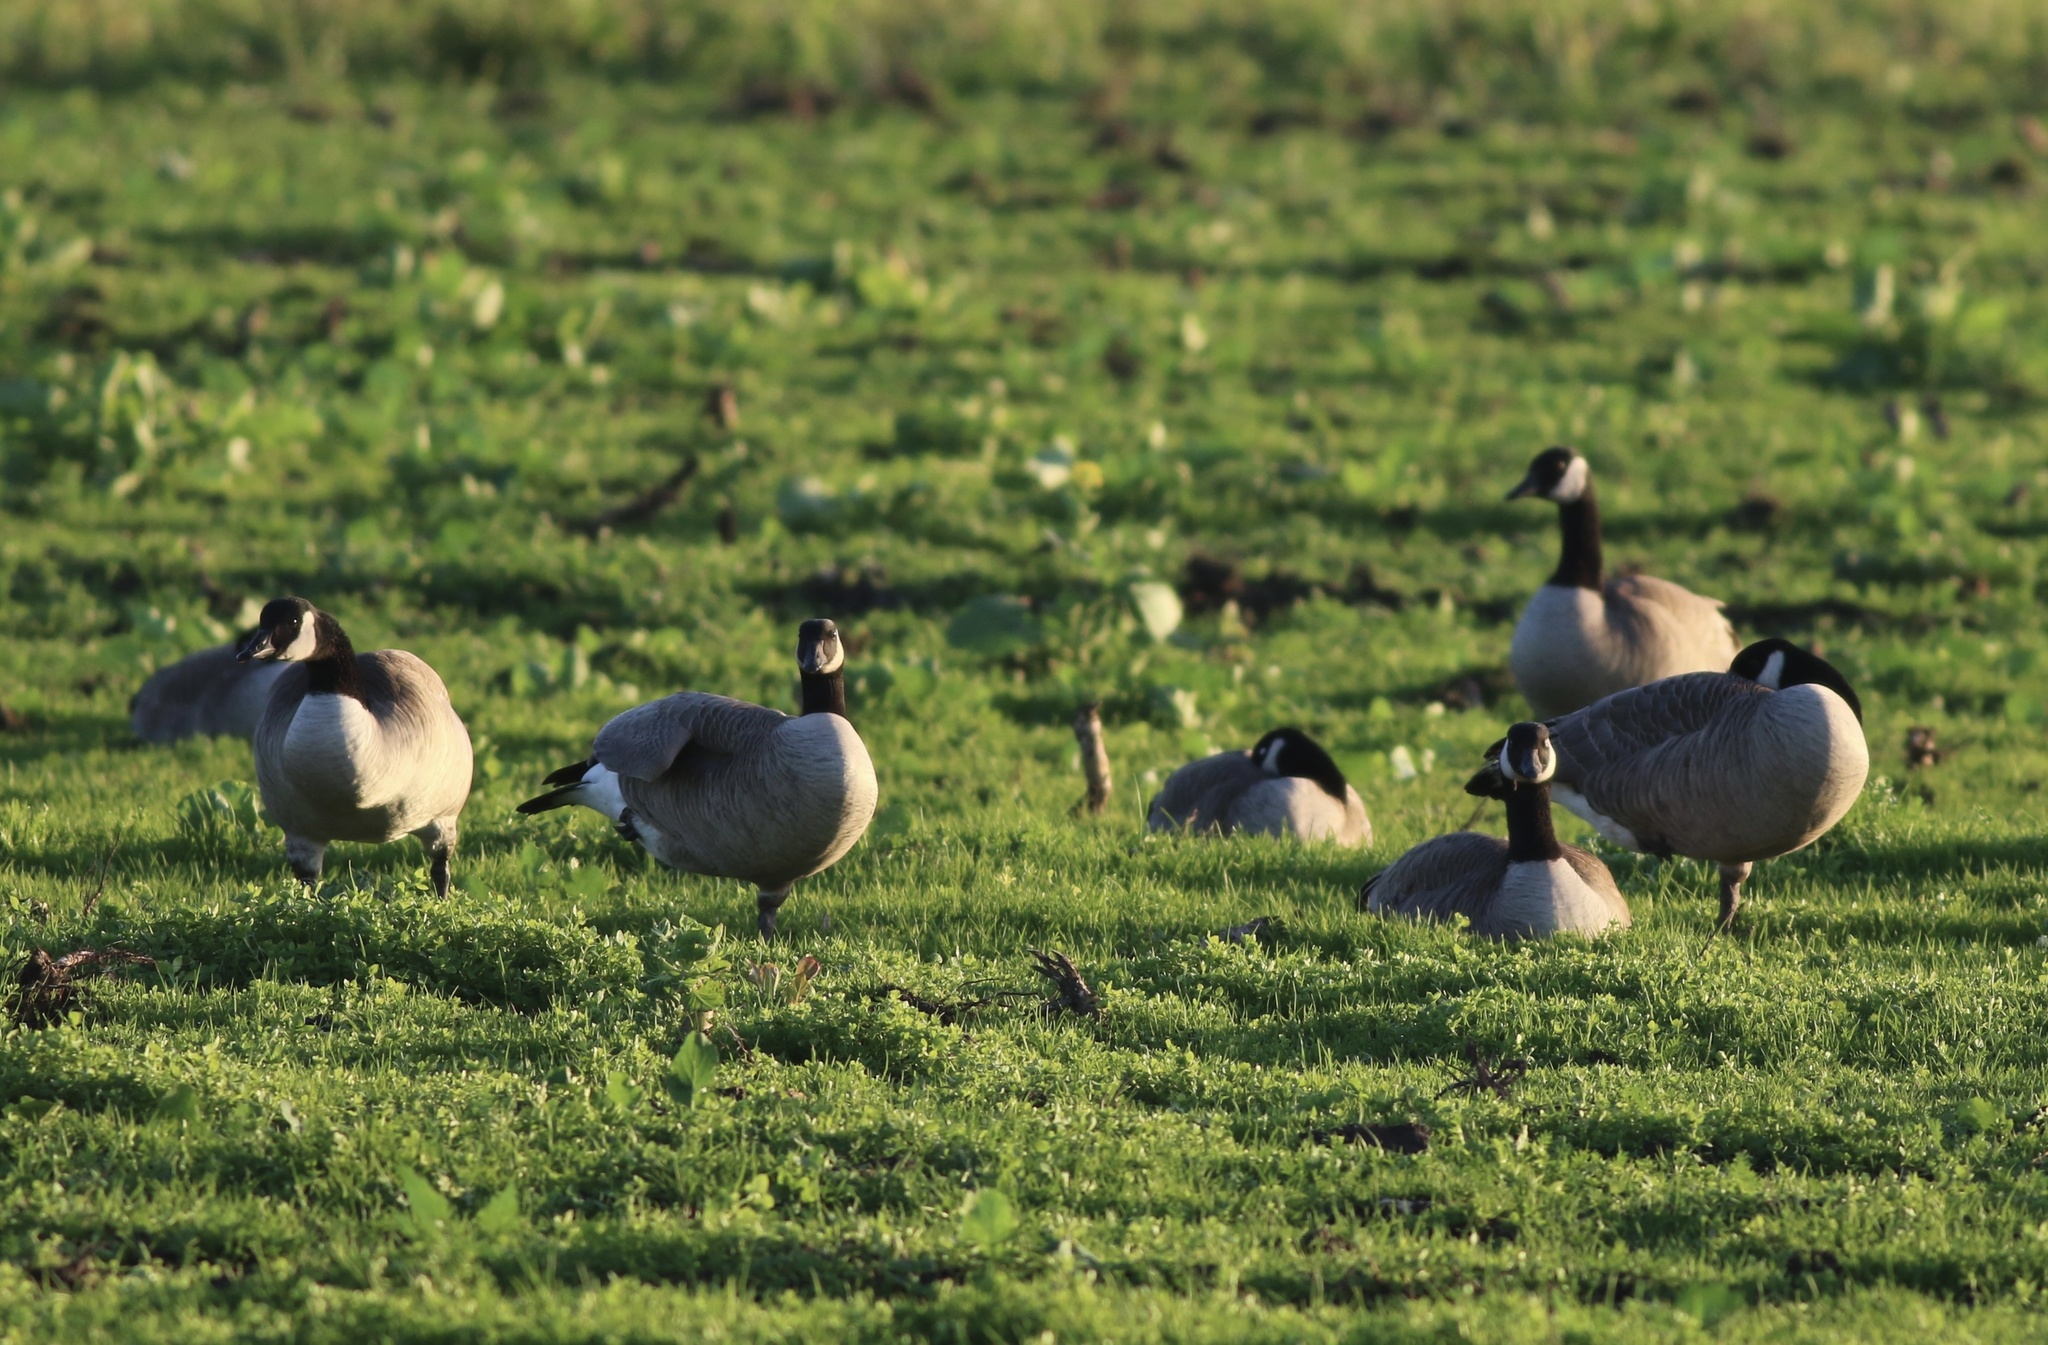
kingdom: Animalia
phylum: Chordata
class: Aves
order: Anseriformes
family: Anatidae
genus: Branta
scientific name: Branta canadensis
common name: Canada goose
